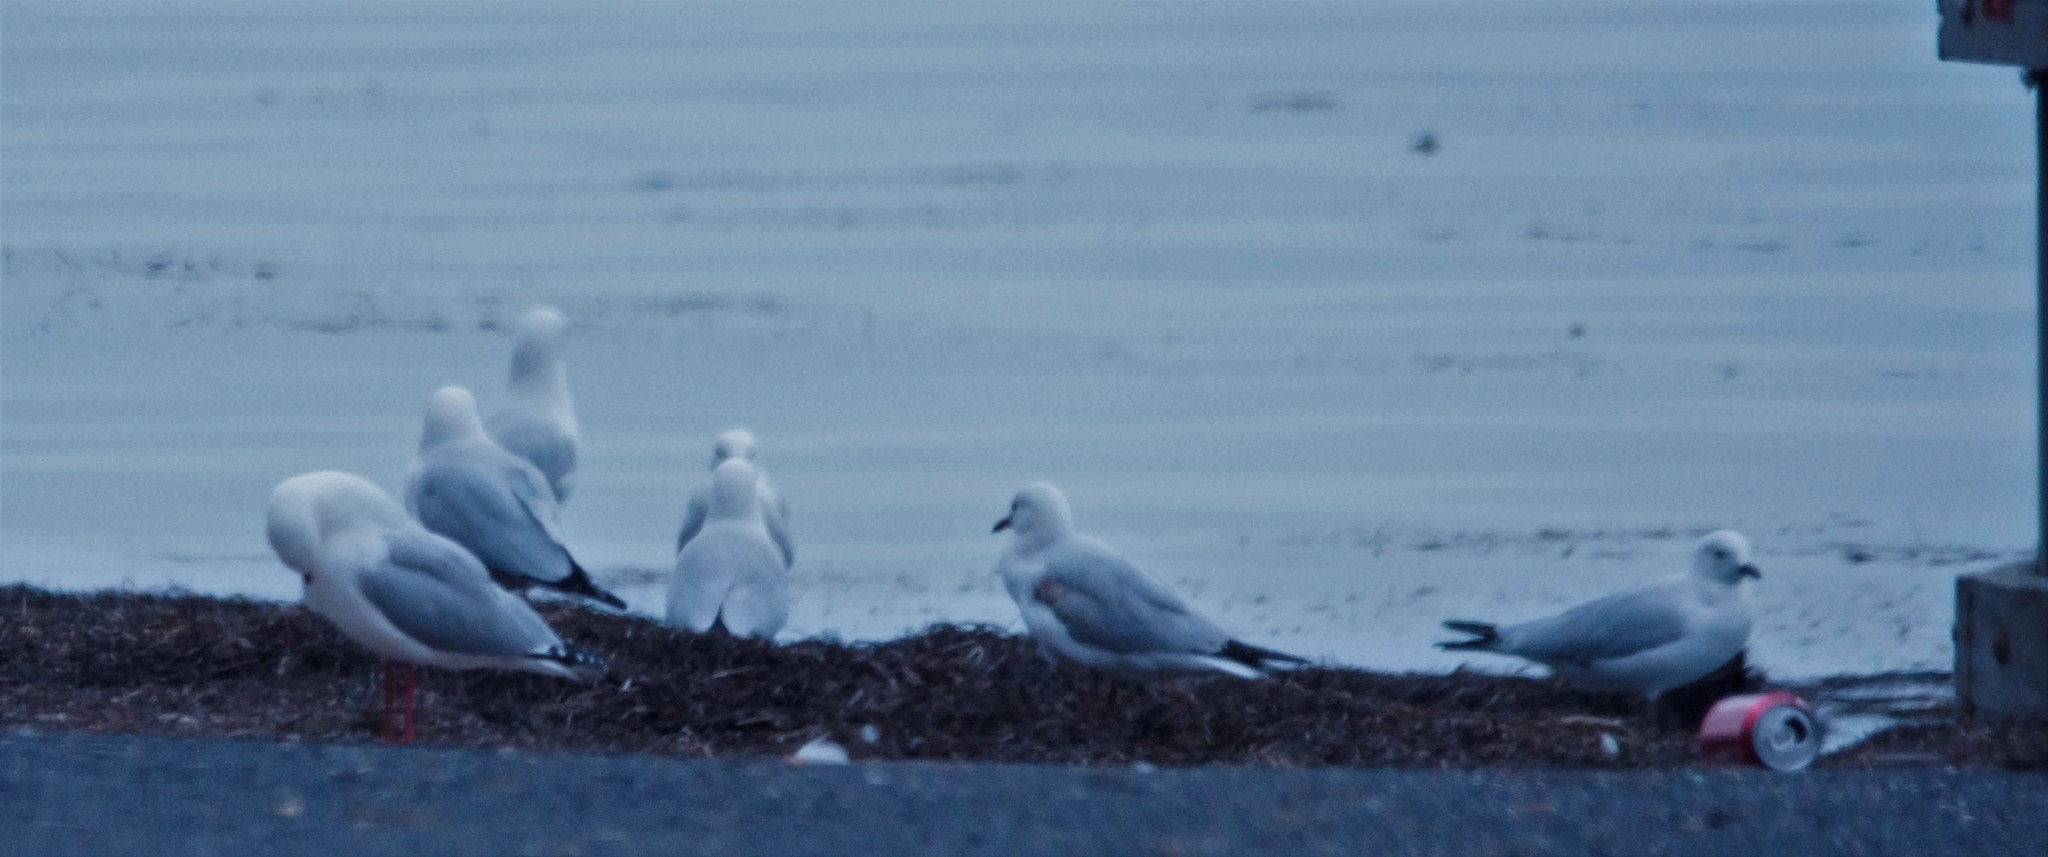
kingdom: Animalia
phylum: Chordata
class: Aves
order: Charadriiformes
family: Laridae
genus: Chroicocephalus
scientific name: Chroicocephalus novaehollandiae
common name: Silver gull
